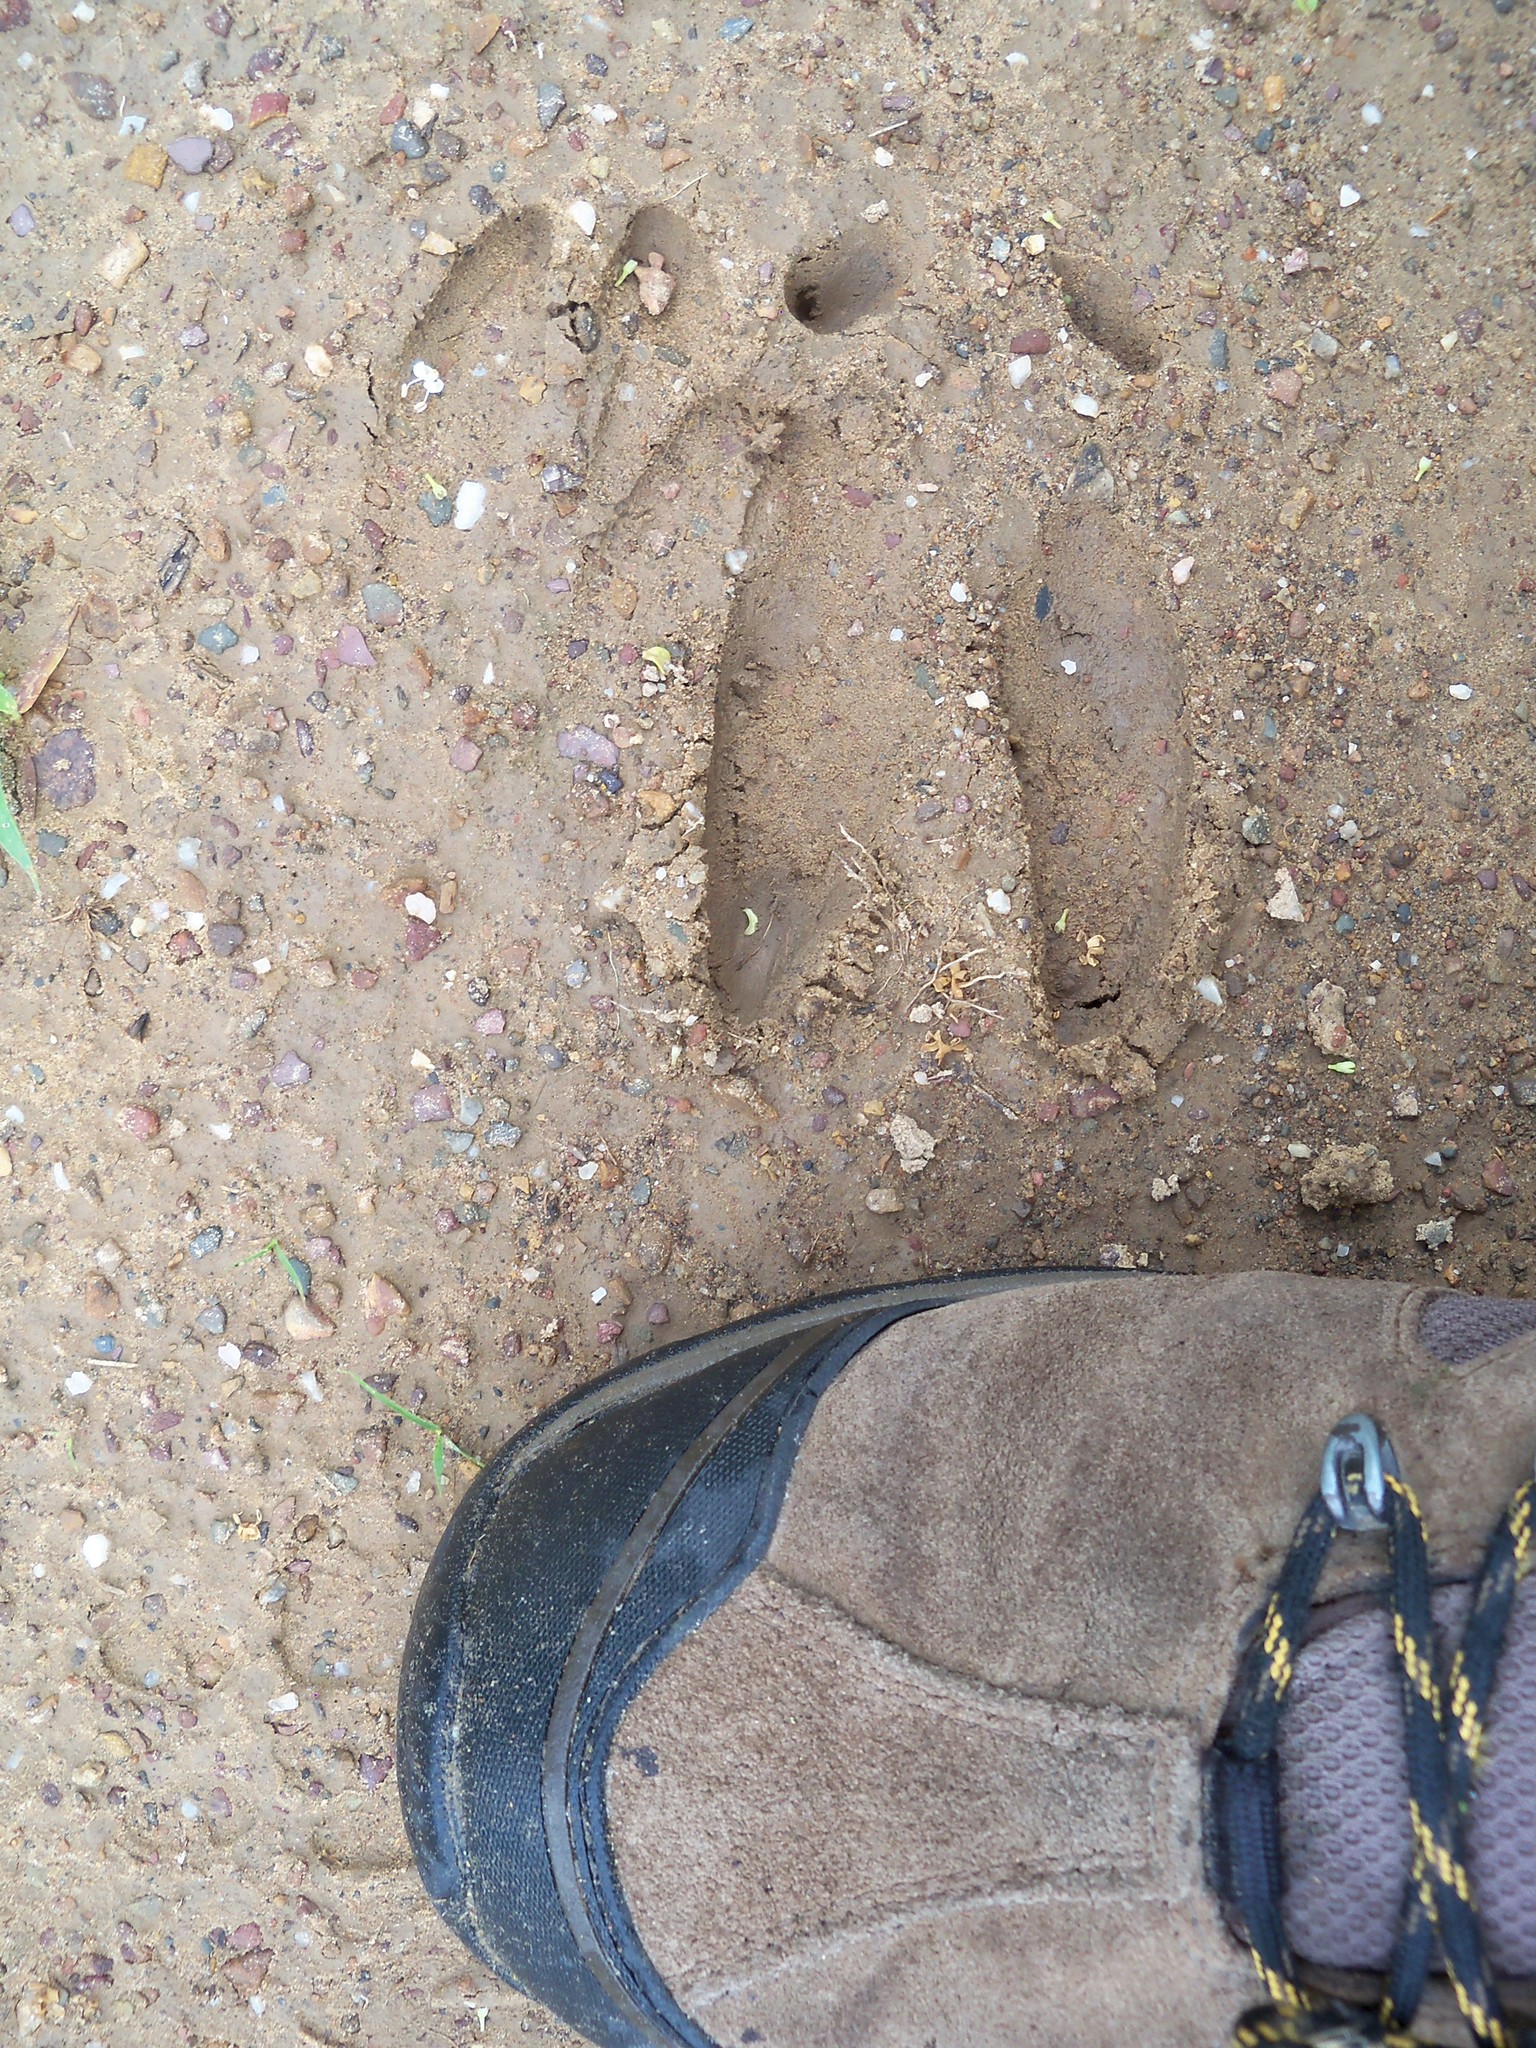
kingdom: Animalia
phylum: Chordata
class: Mammalia
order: Artiodactyla
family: Cervidae
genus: Odocoileus
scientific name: Odocoileus virginianus
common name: White-tailed deer
